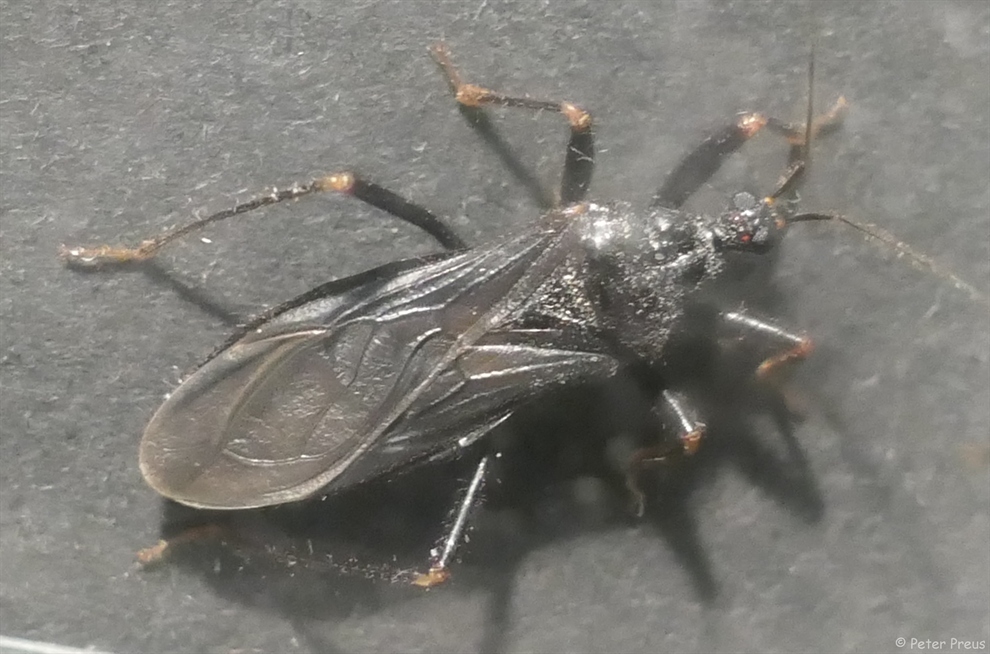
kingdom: Animalia
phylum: Arthropoda
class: Insecta
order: Hemiptera
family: Reduviidae
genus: Reduvius
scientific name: Reduvius personatus
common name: Masked hunter
